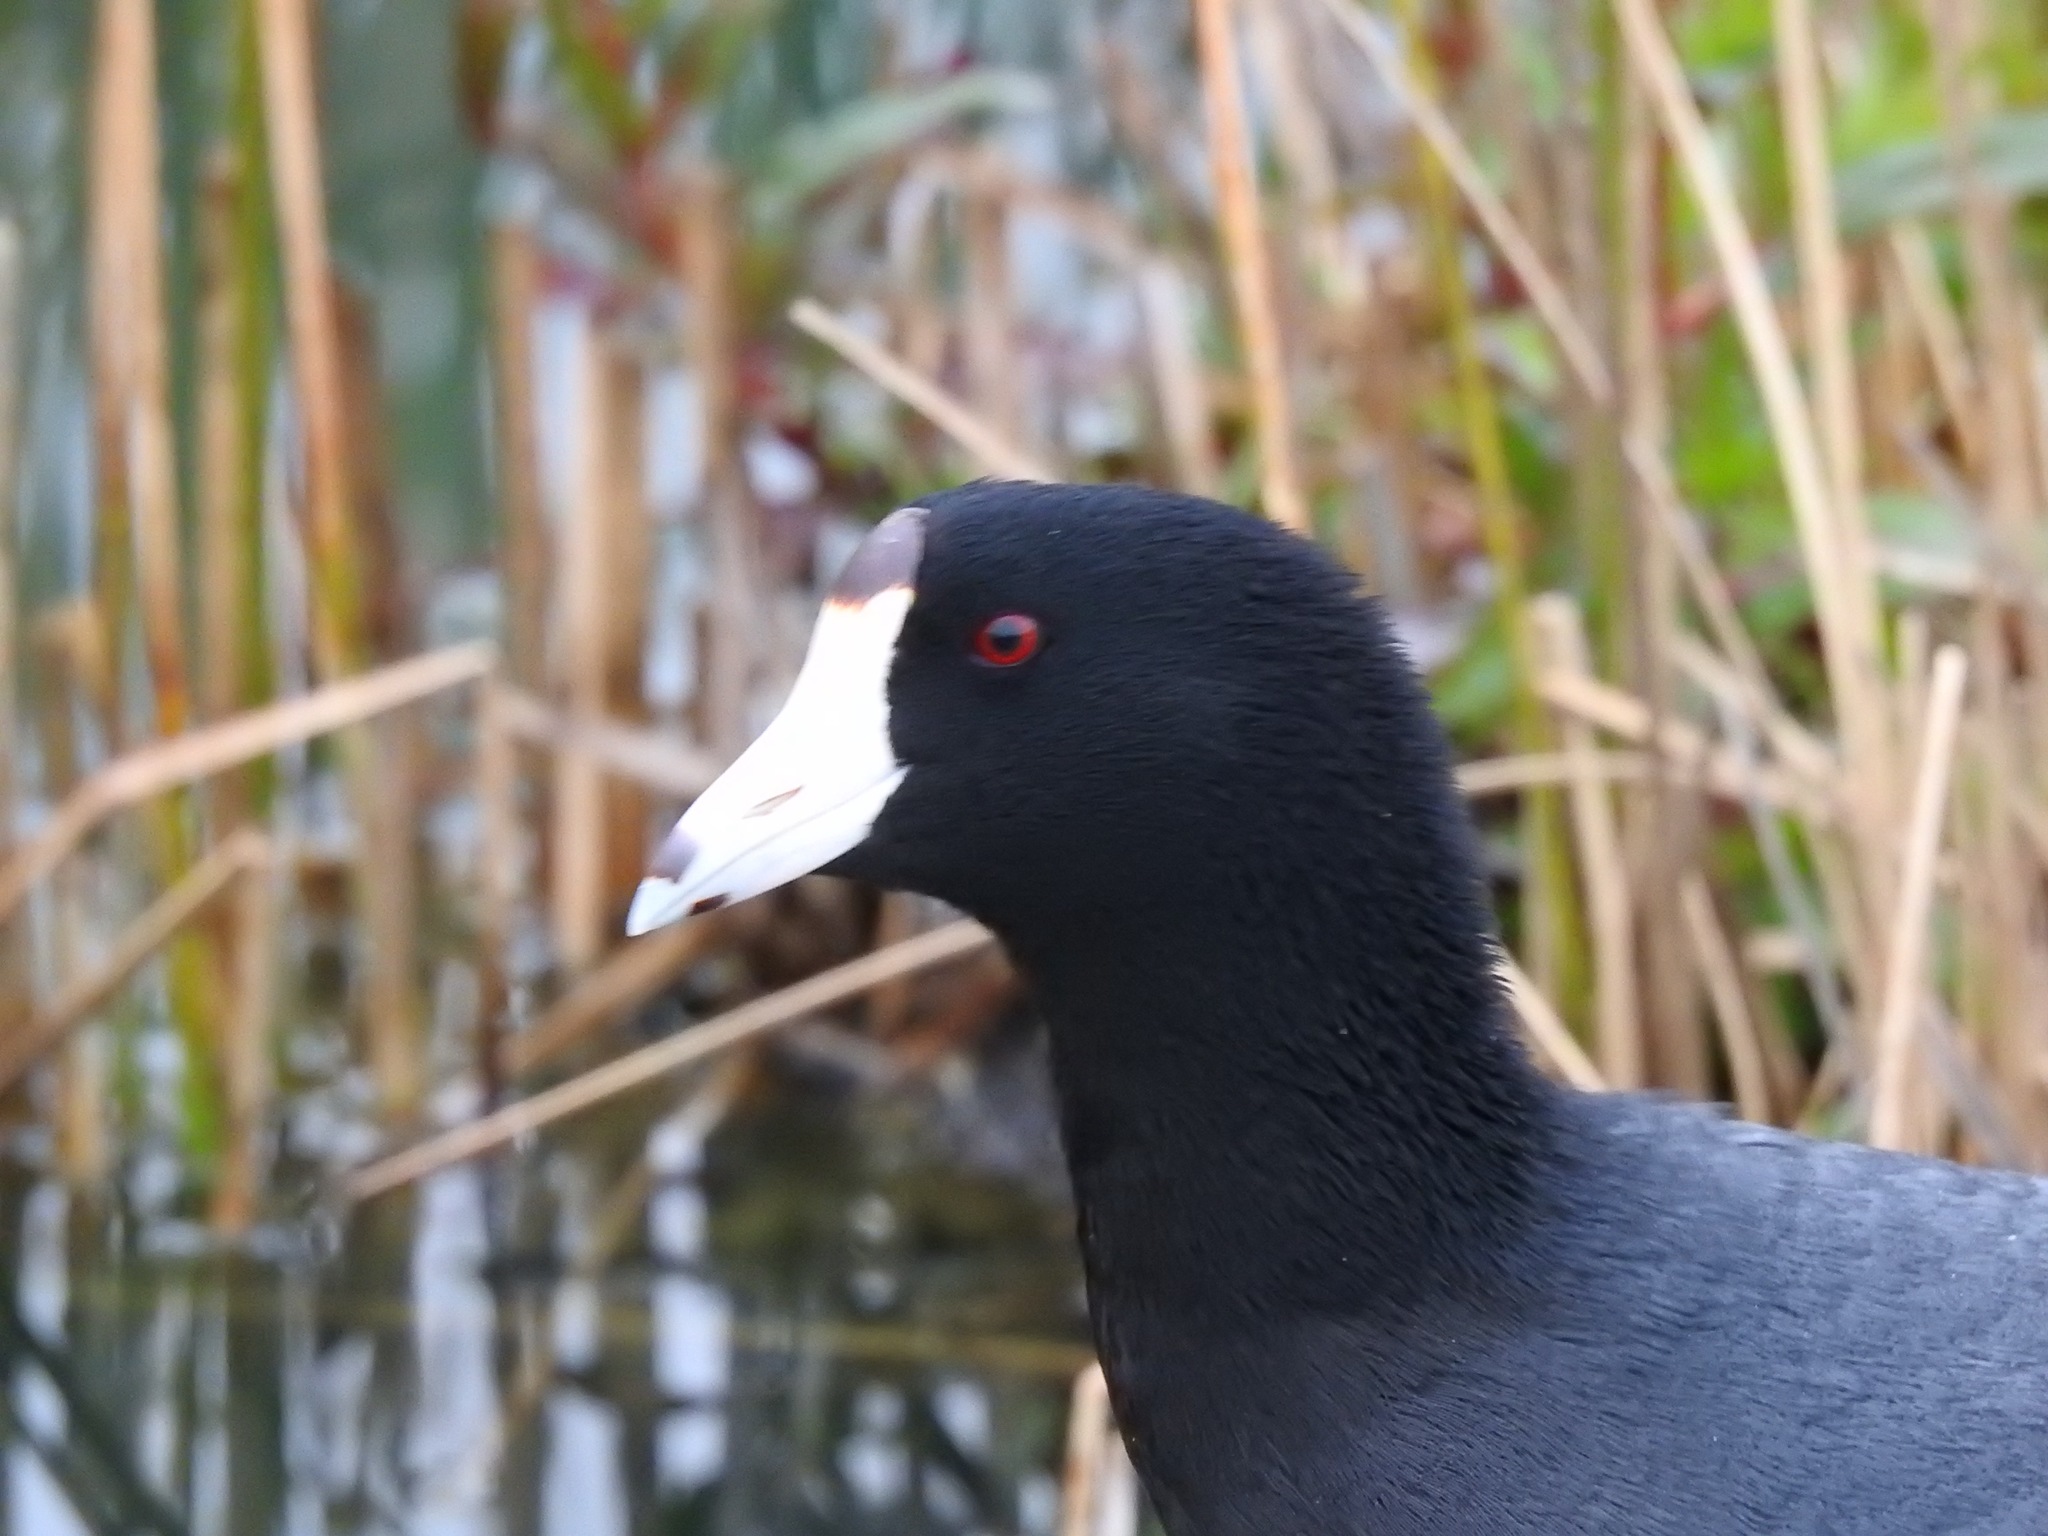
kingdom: Animalia
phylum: Chordata
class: Aves
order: Gruiformes
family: Rallidae
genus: Fulica
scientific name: Fulica americana
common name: American coot
